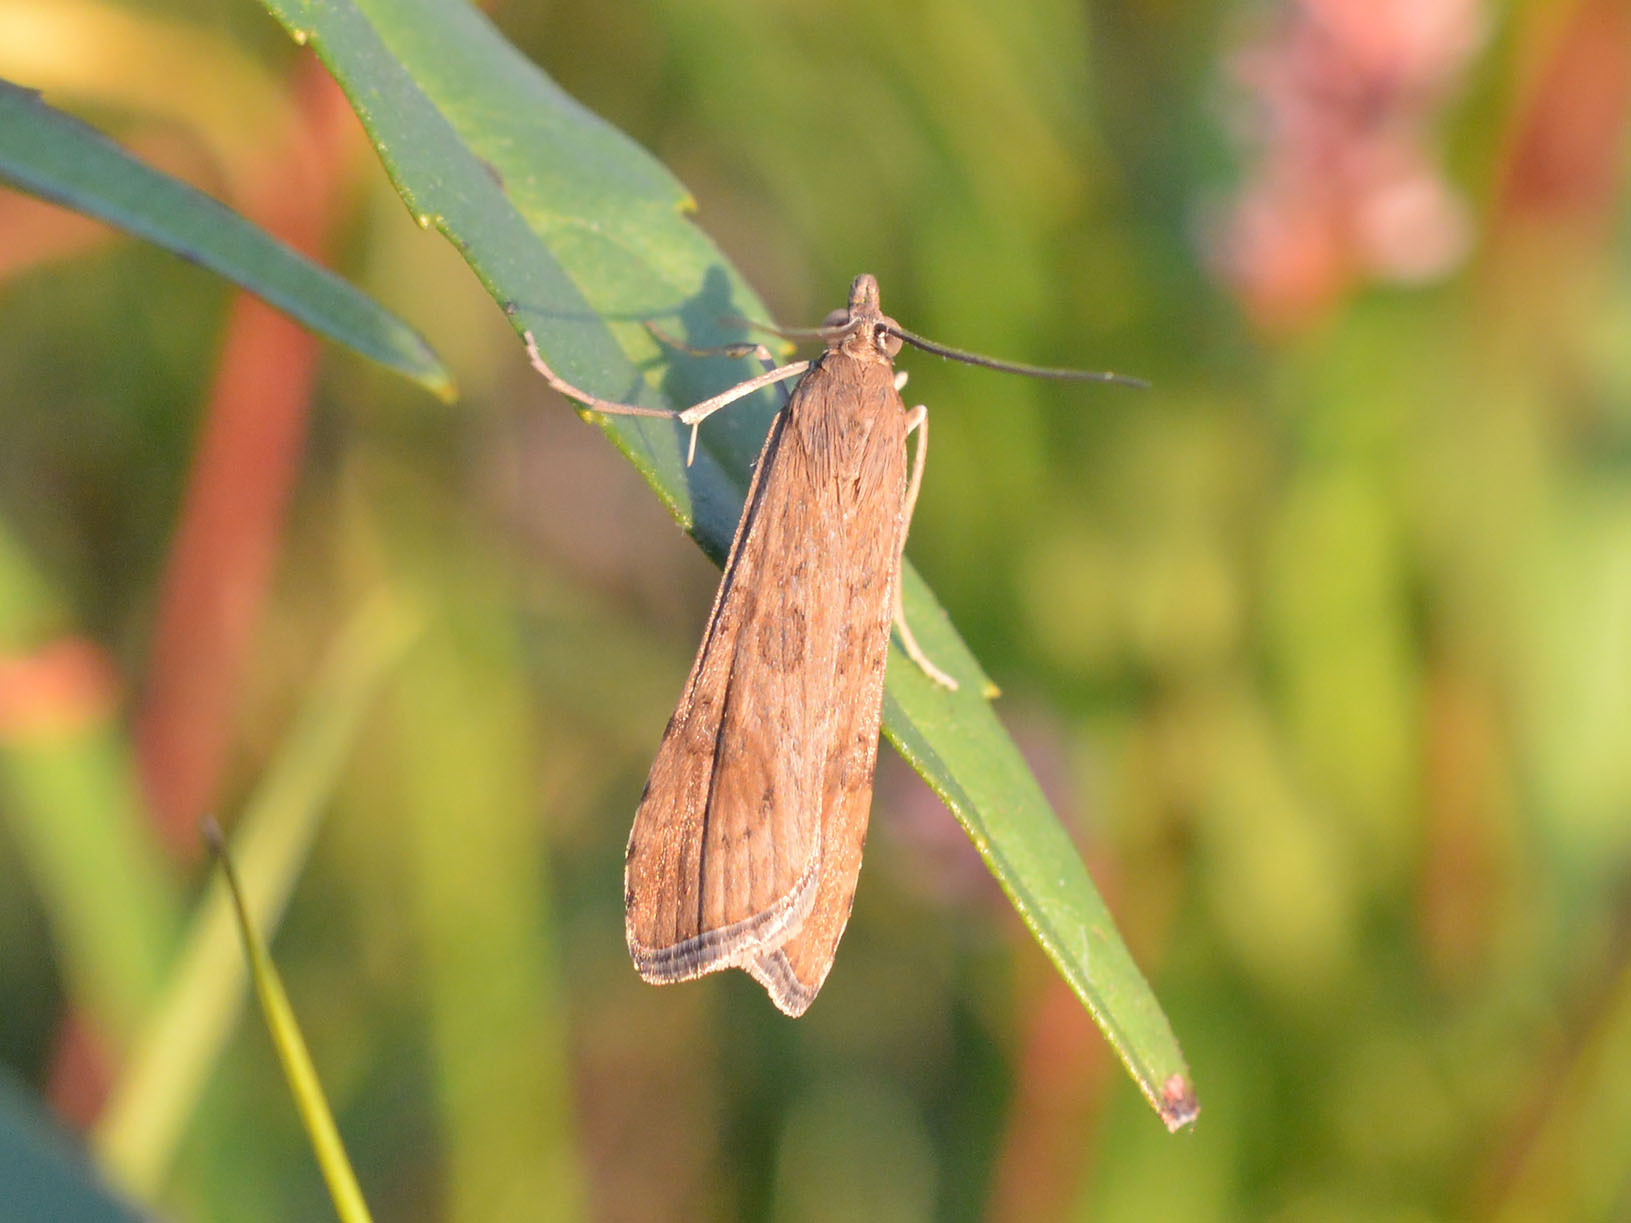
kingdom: Animalia
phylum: Arthropoda
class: Insecta
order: Lepidoptera
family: Crambidae
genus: Nomophila
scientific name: Nomophila noctuella
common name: Rush veneer
